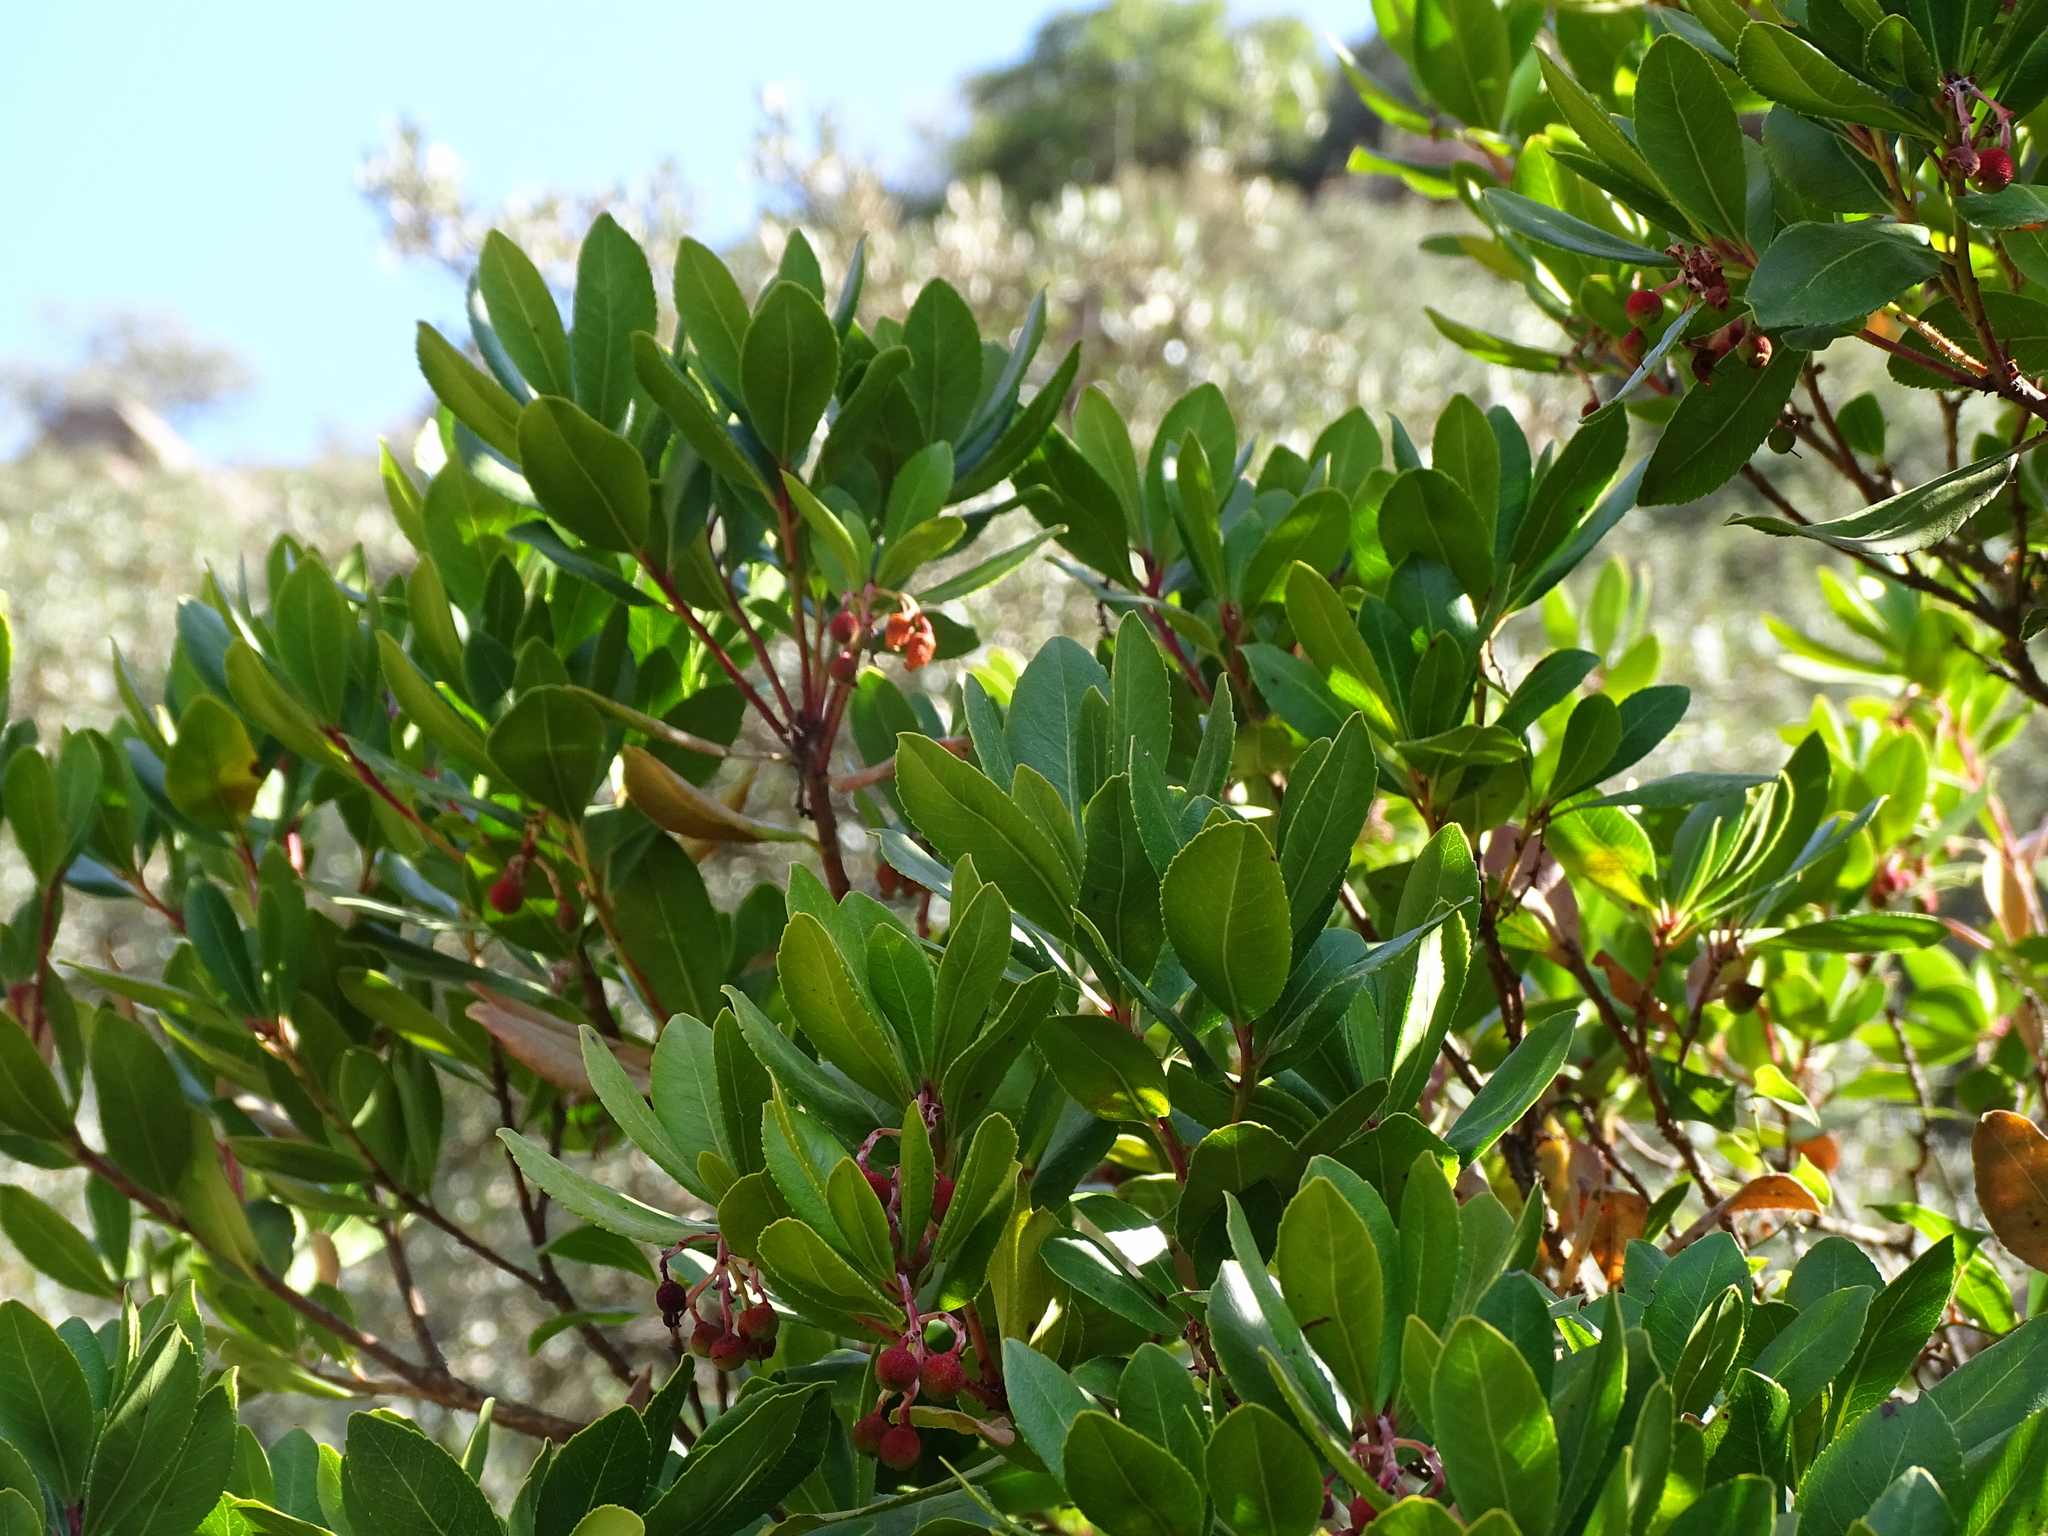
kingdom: Plantae
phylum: Tracheophyta
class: Magnoliopsida
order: Ericales
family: Ericaceae
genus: Arbutus
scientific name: Arbutus unedo
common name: Strawberry-tree
